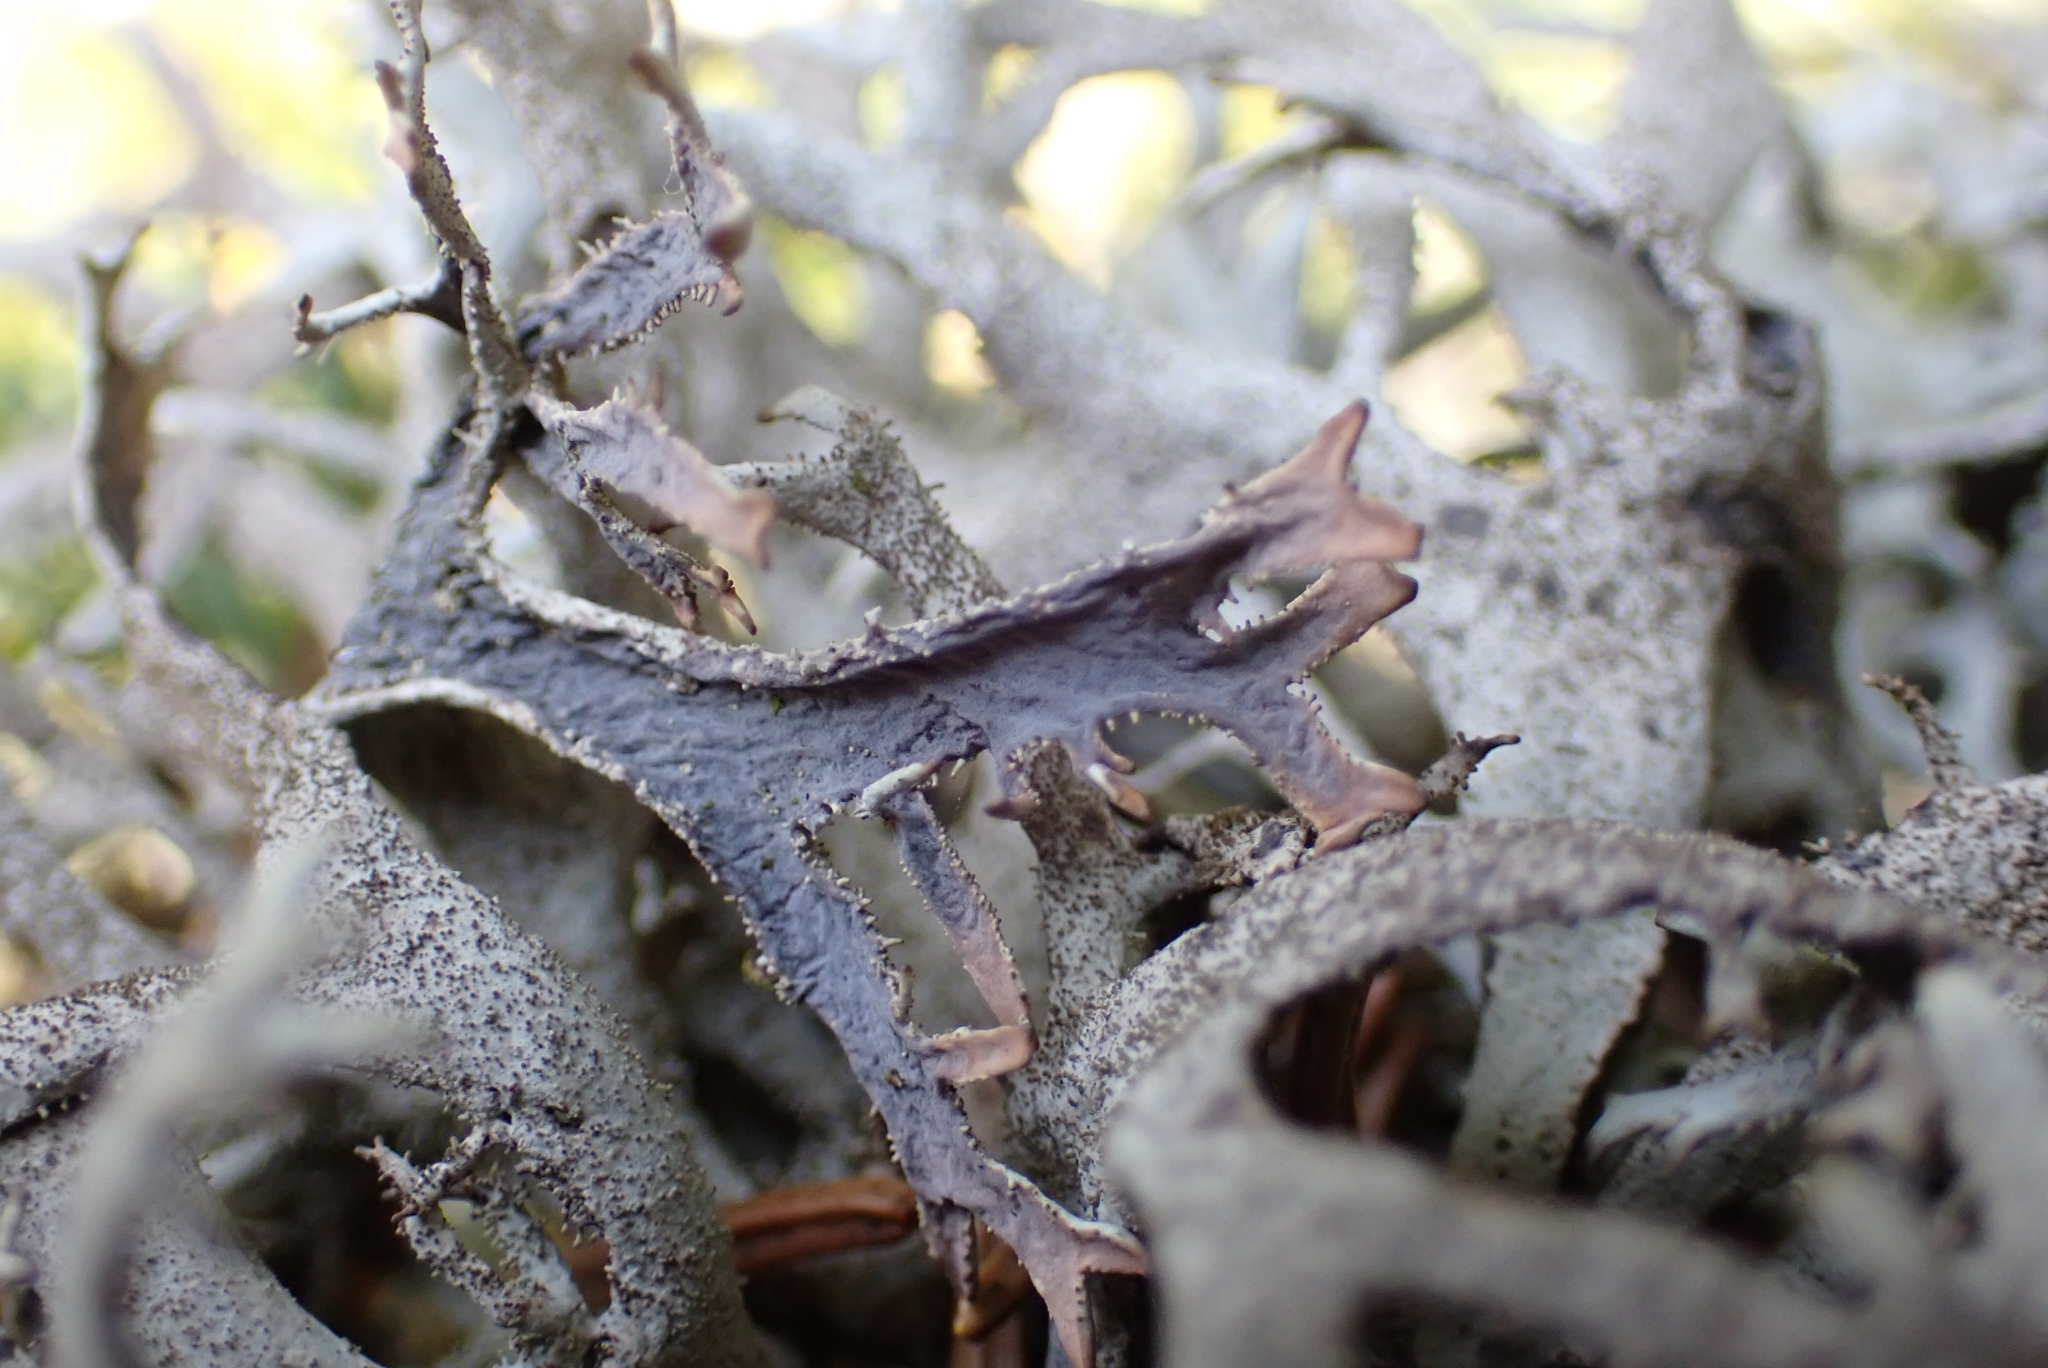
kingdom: Fungi
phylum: Ascomycota
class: Lecanoromycetes
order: Lecanorales
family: Parmeliaceae
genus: Pseudevernia
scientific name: Pseudevernia furfuracea
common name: Tree moss
